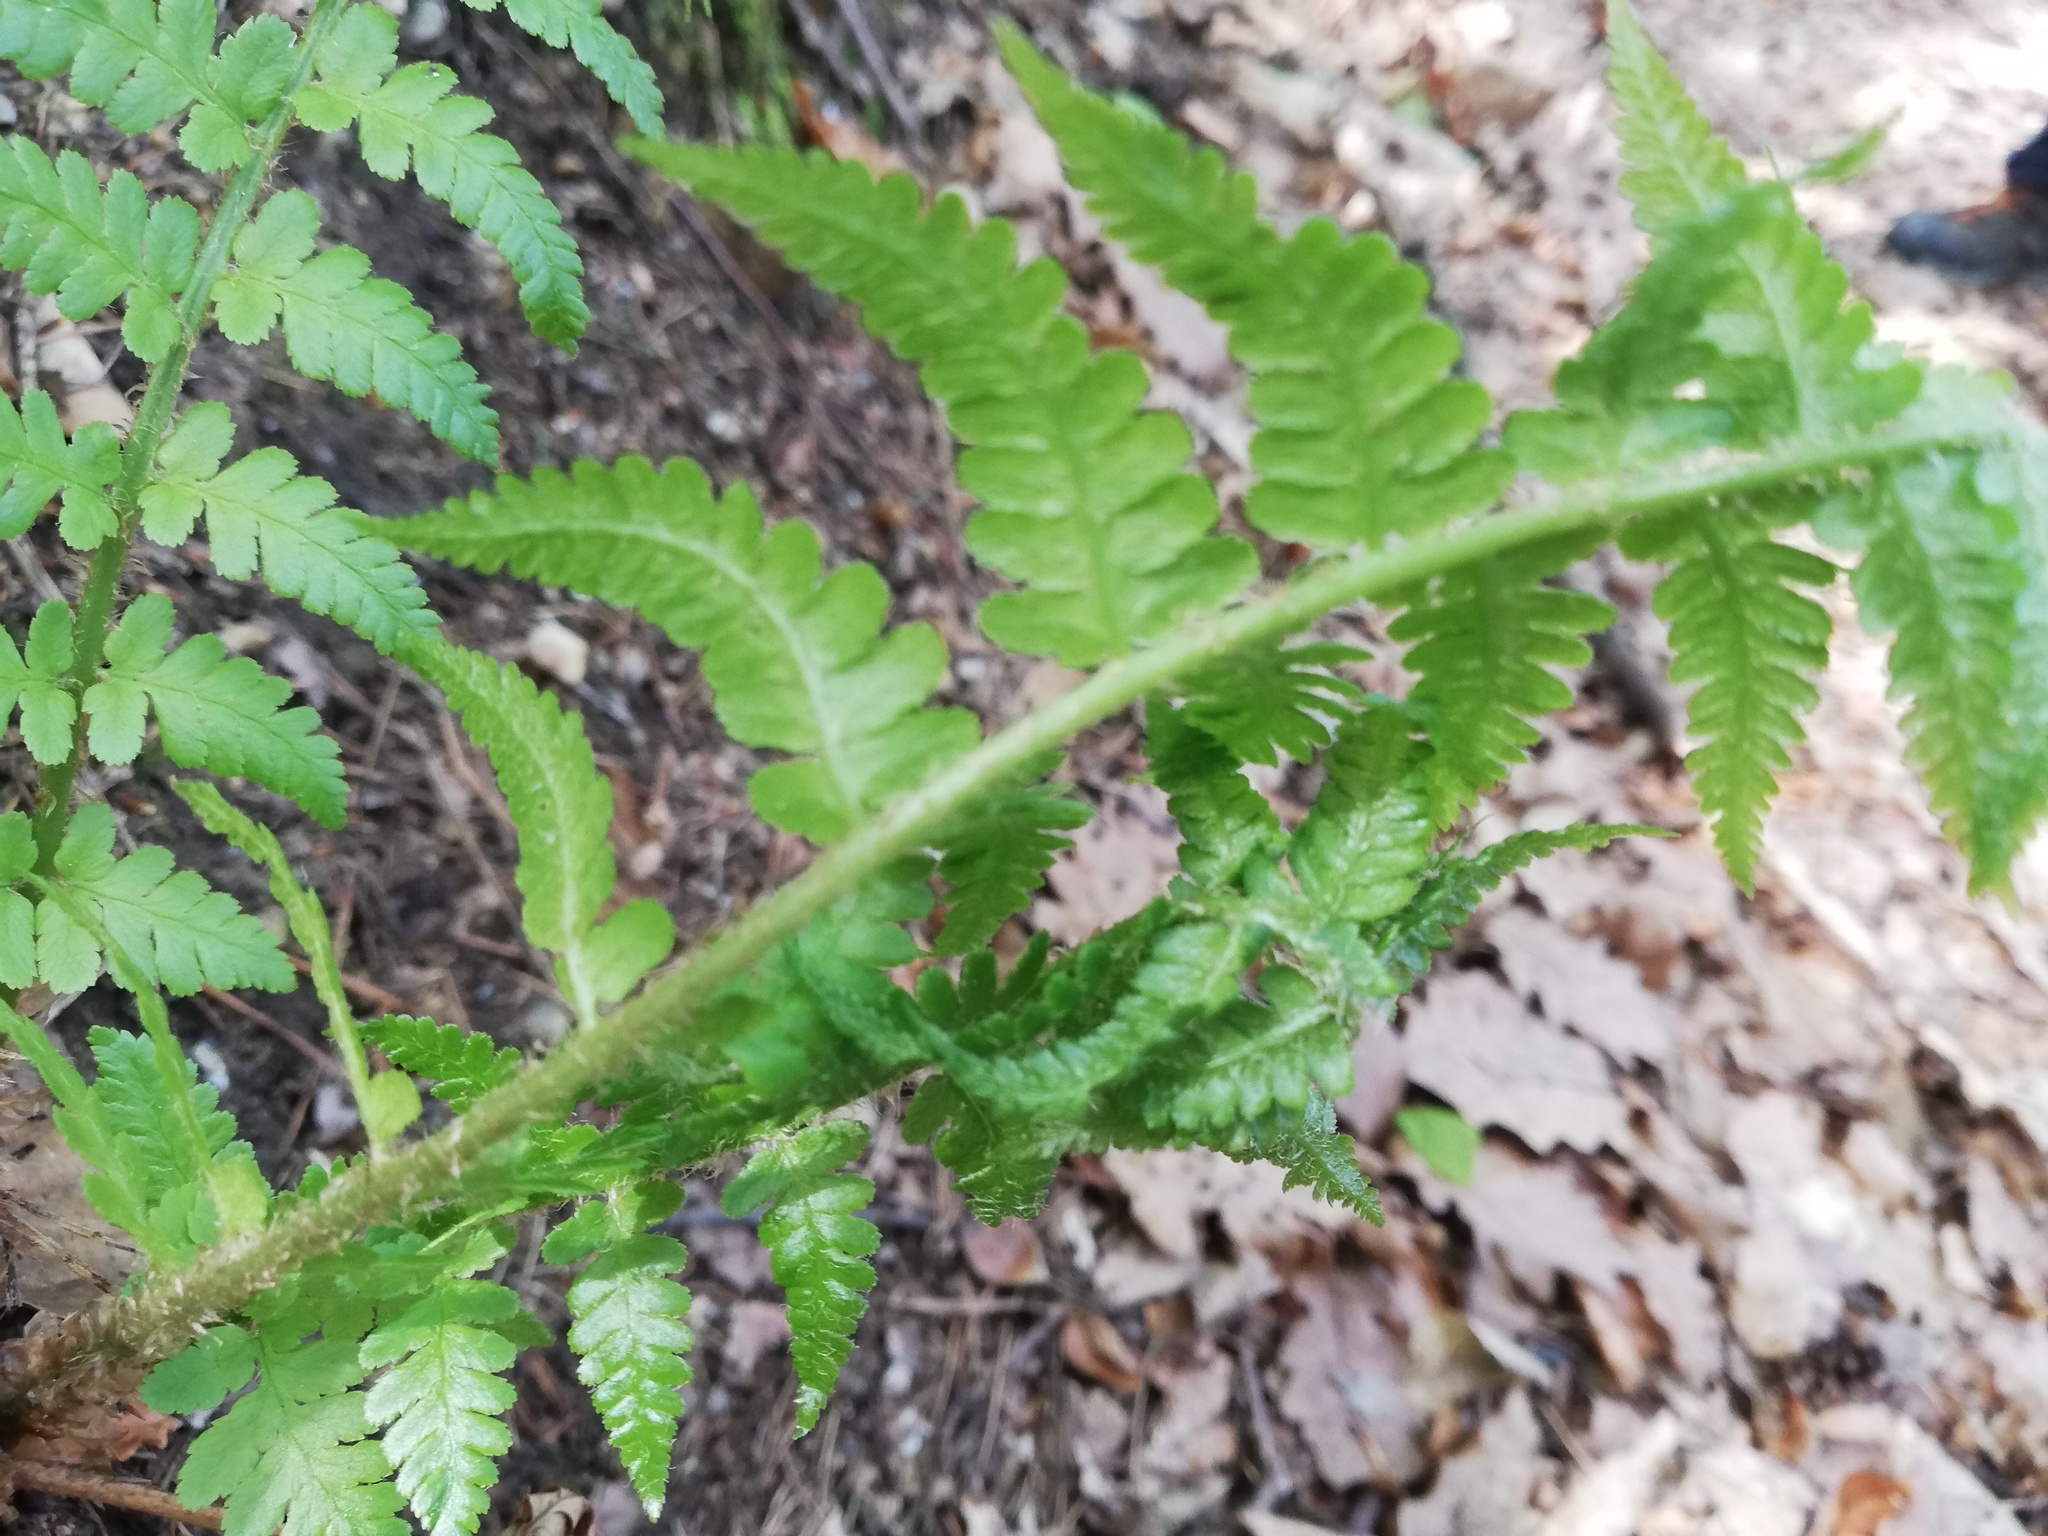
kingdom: Plantae
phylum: Tracheophyta
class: Polypodiopsida
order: Polypodiales
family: Dryopteridaceae
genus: Dryopteris
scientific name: Dryopteris filix-mas
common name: Male fern
